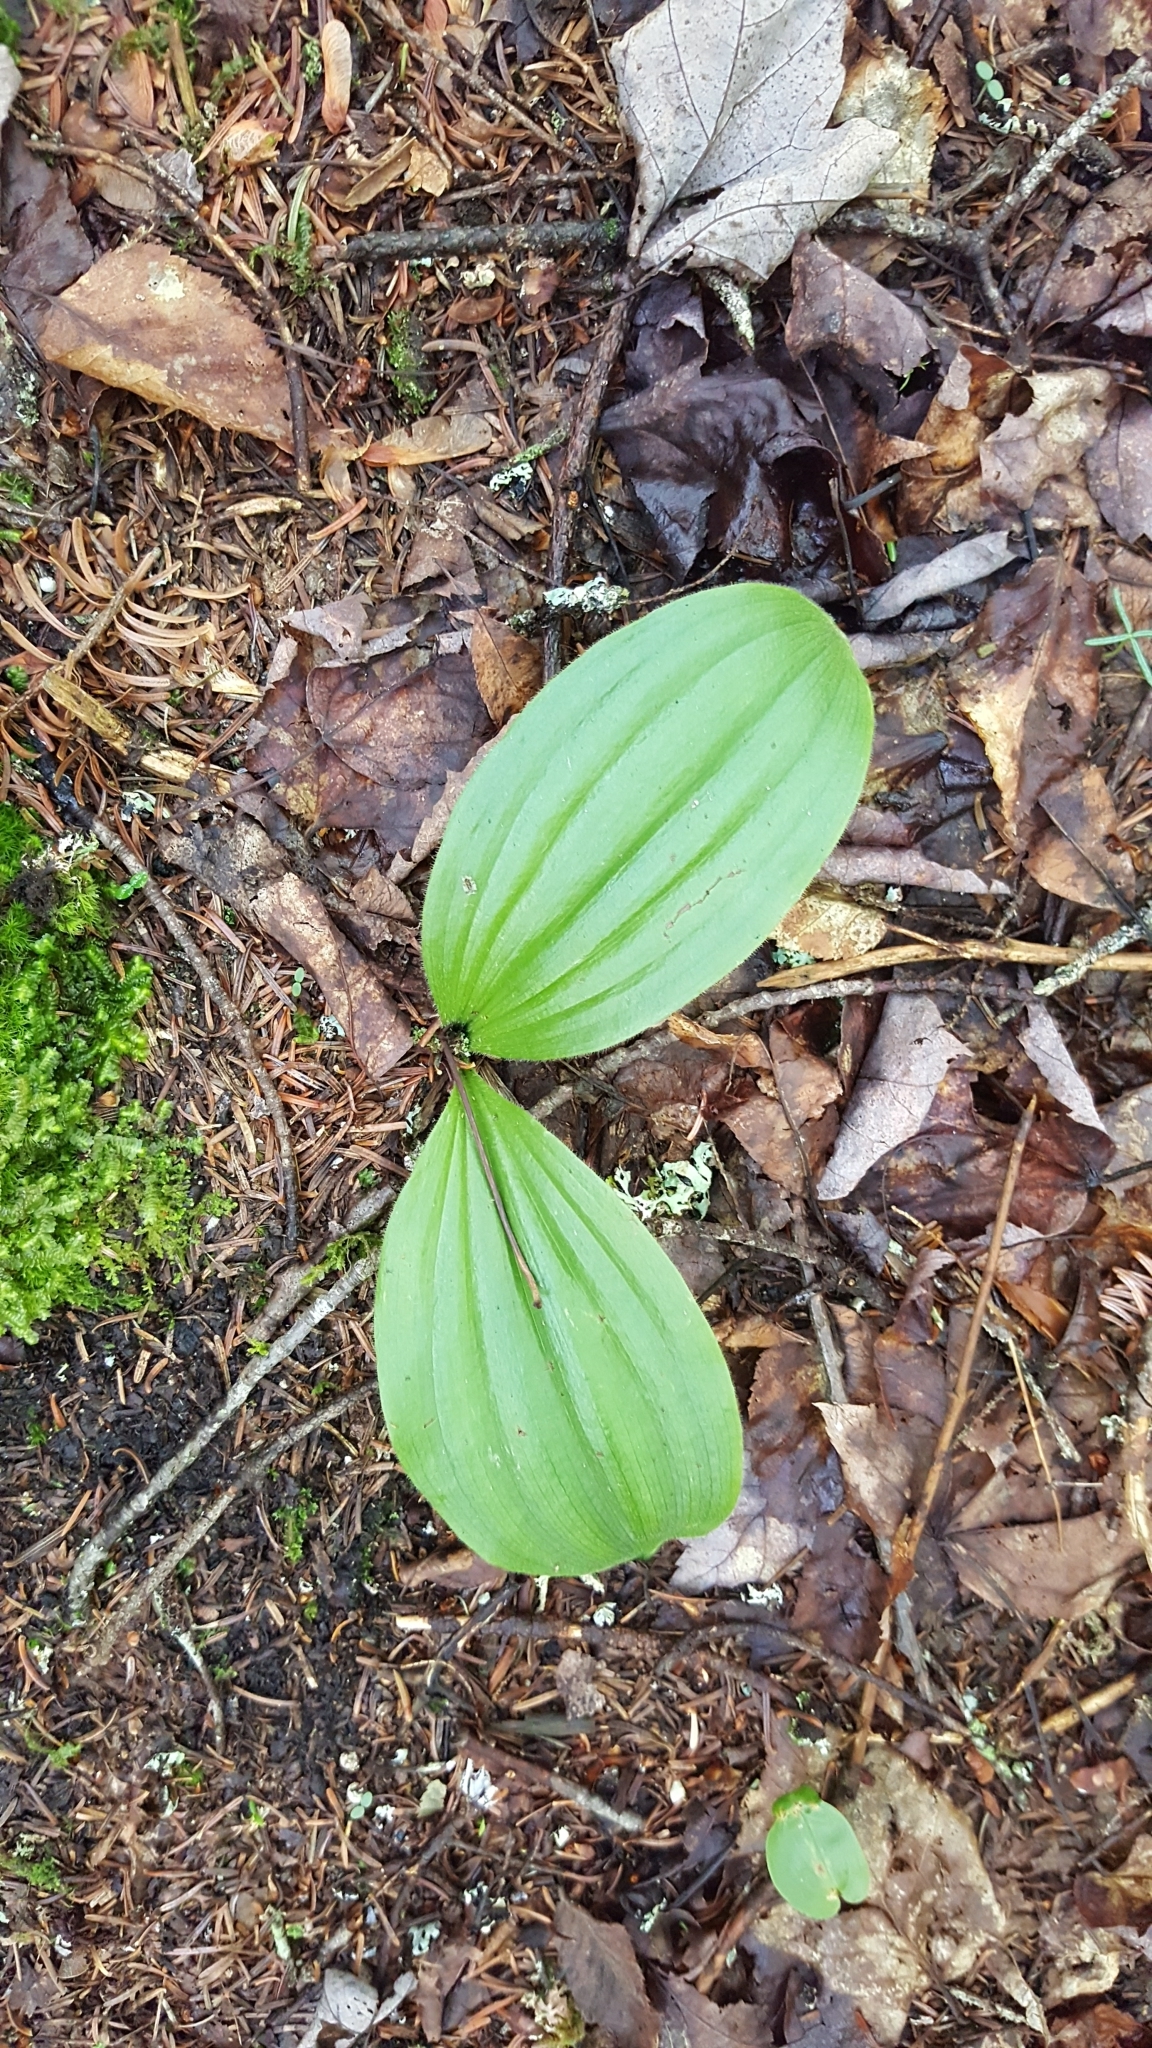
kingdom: Plantae
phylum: Tracheophyta
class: Liliopsida
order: Asparagales
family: Orchidaceae
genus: Cypripedium
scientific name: Cypripedium acaule
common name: Pink lady's-slipper
